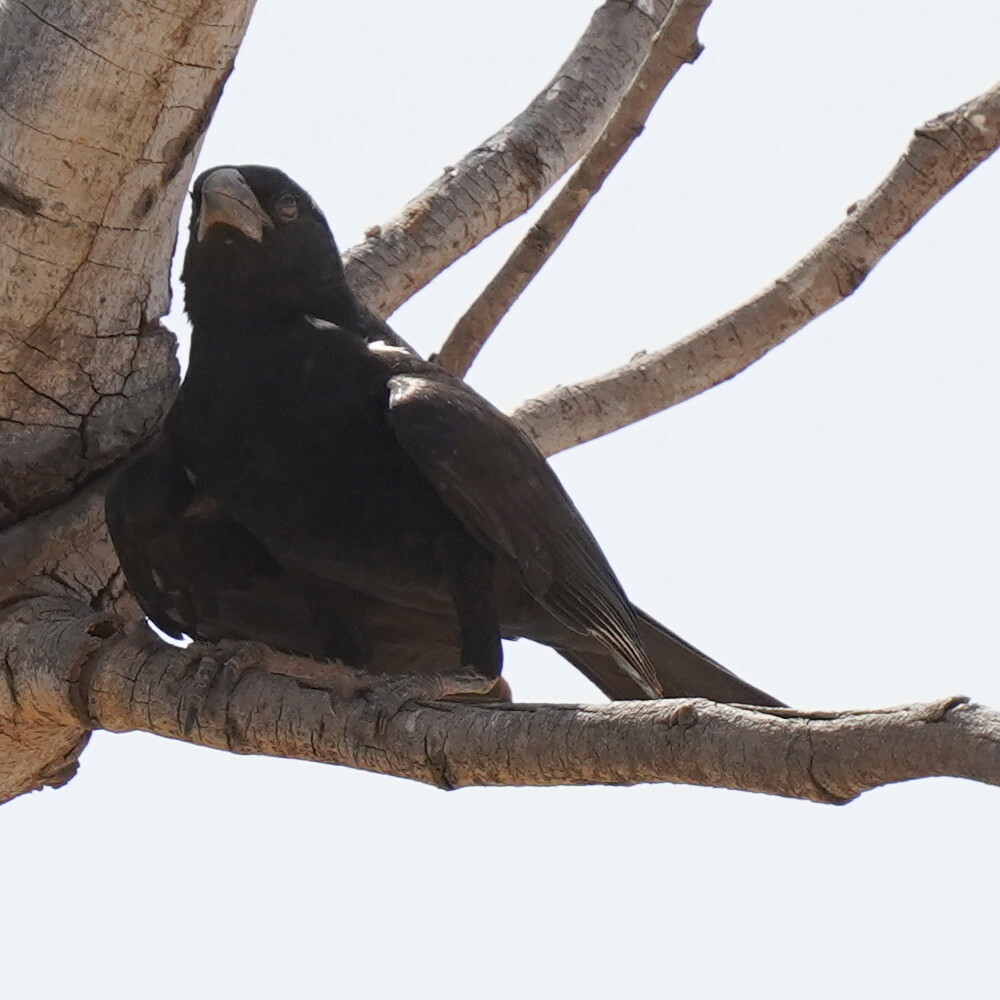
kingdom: Animalia
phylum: Chordata
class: Aves
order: Passeriformes
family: Ploceidae
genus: Bubalornis
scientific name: Bubalornis albirostris
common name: White-billed buffalo weaver
